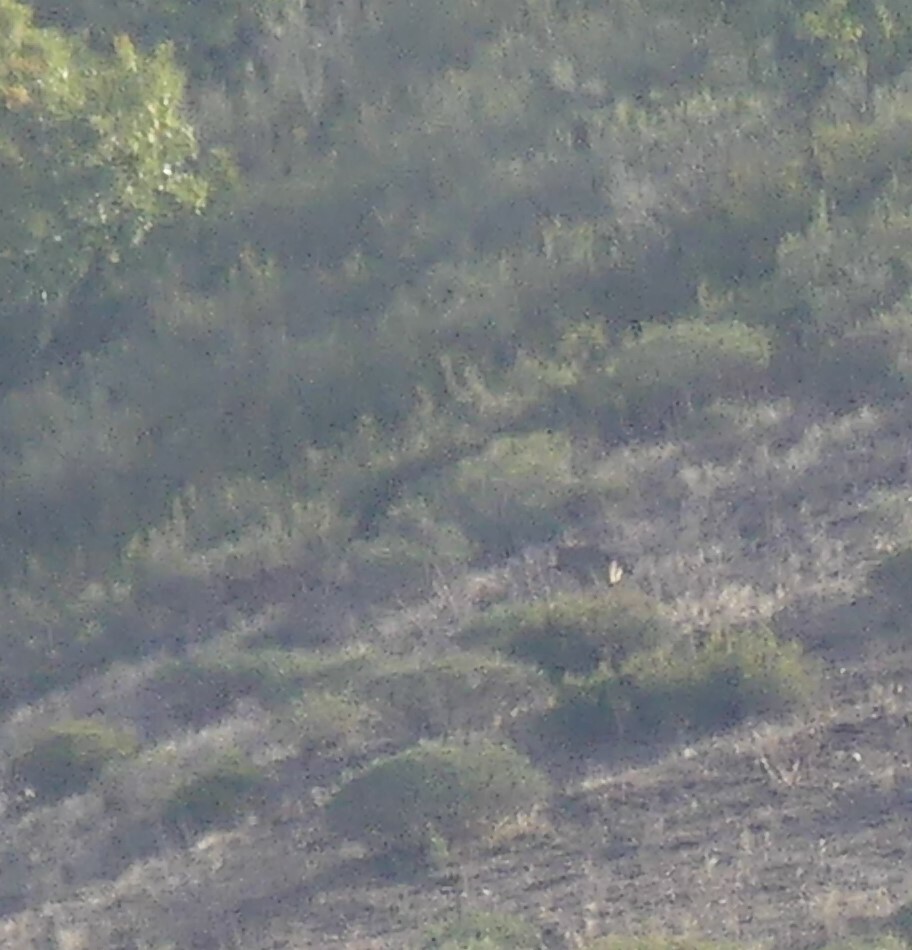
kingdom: Animalia
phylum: Chordata
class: Mammalia
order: Carnivora
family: Canidae
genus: Canis
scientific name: Canis lupus
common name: Gray wolf
